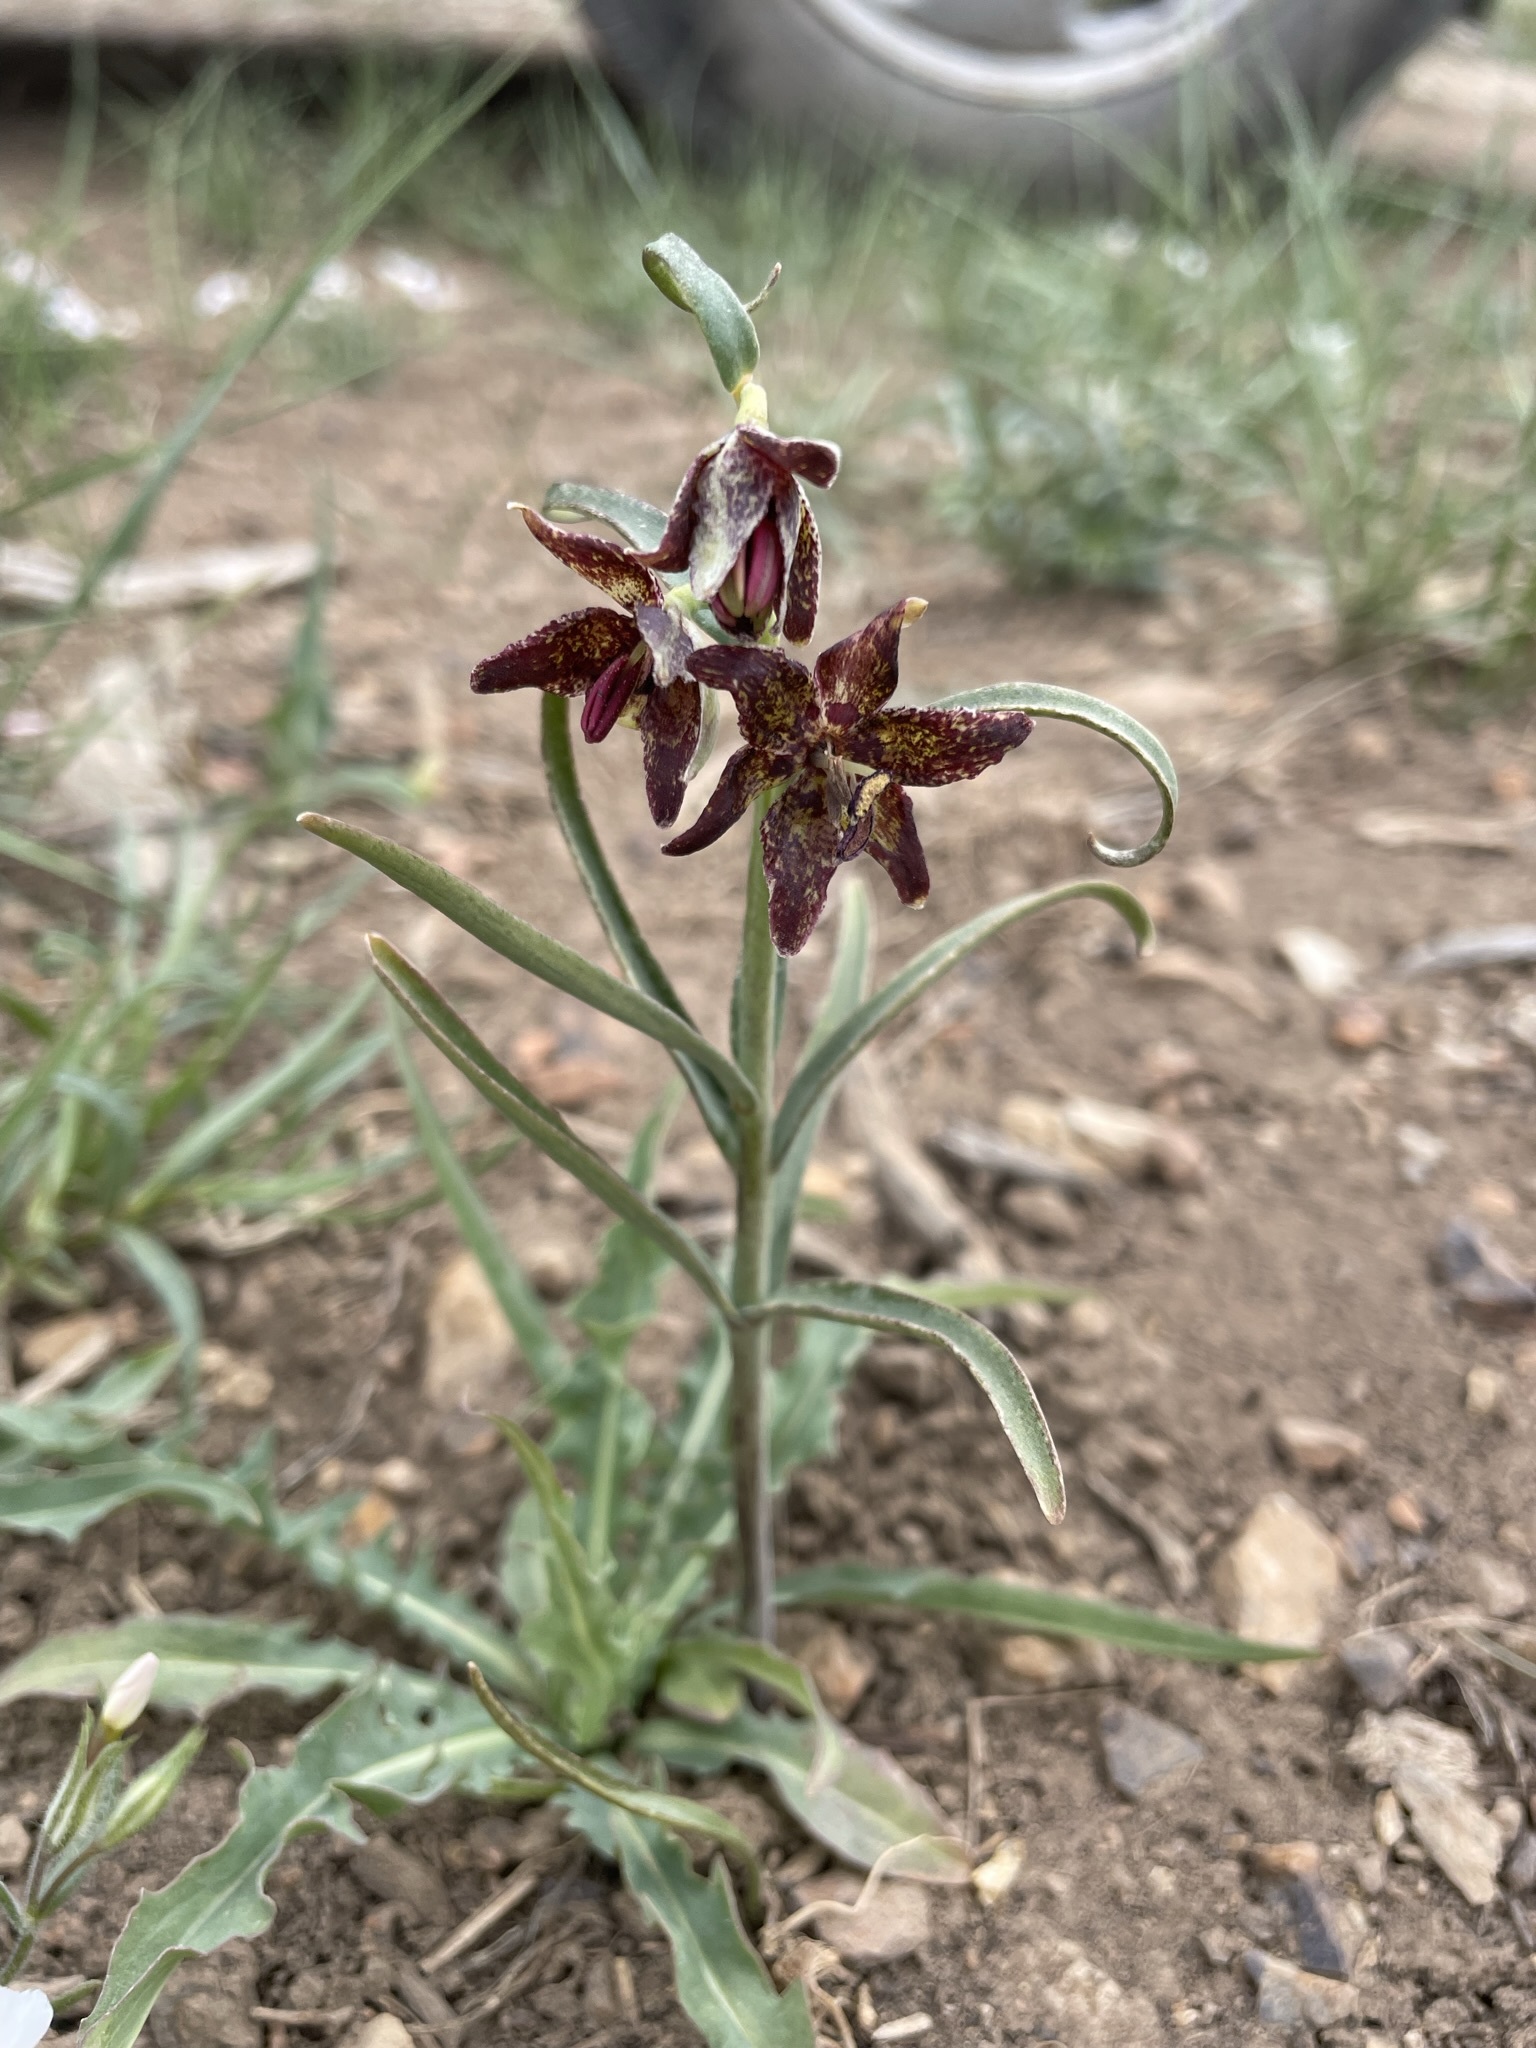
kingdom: Plantae
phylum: Tracheophyta
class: Liliopsida
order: Liliales
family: Liliaceae
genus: Fritillaria
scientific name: Fritillaria atropurpurea
